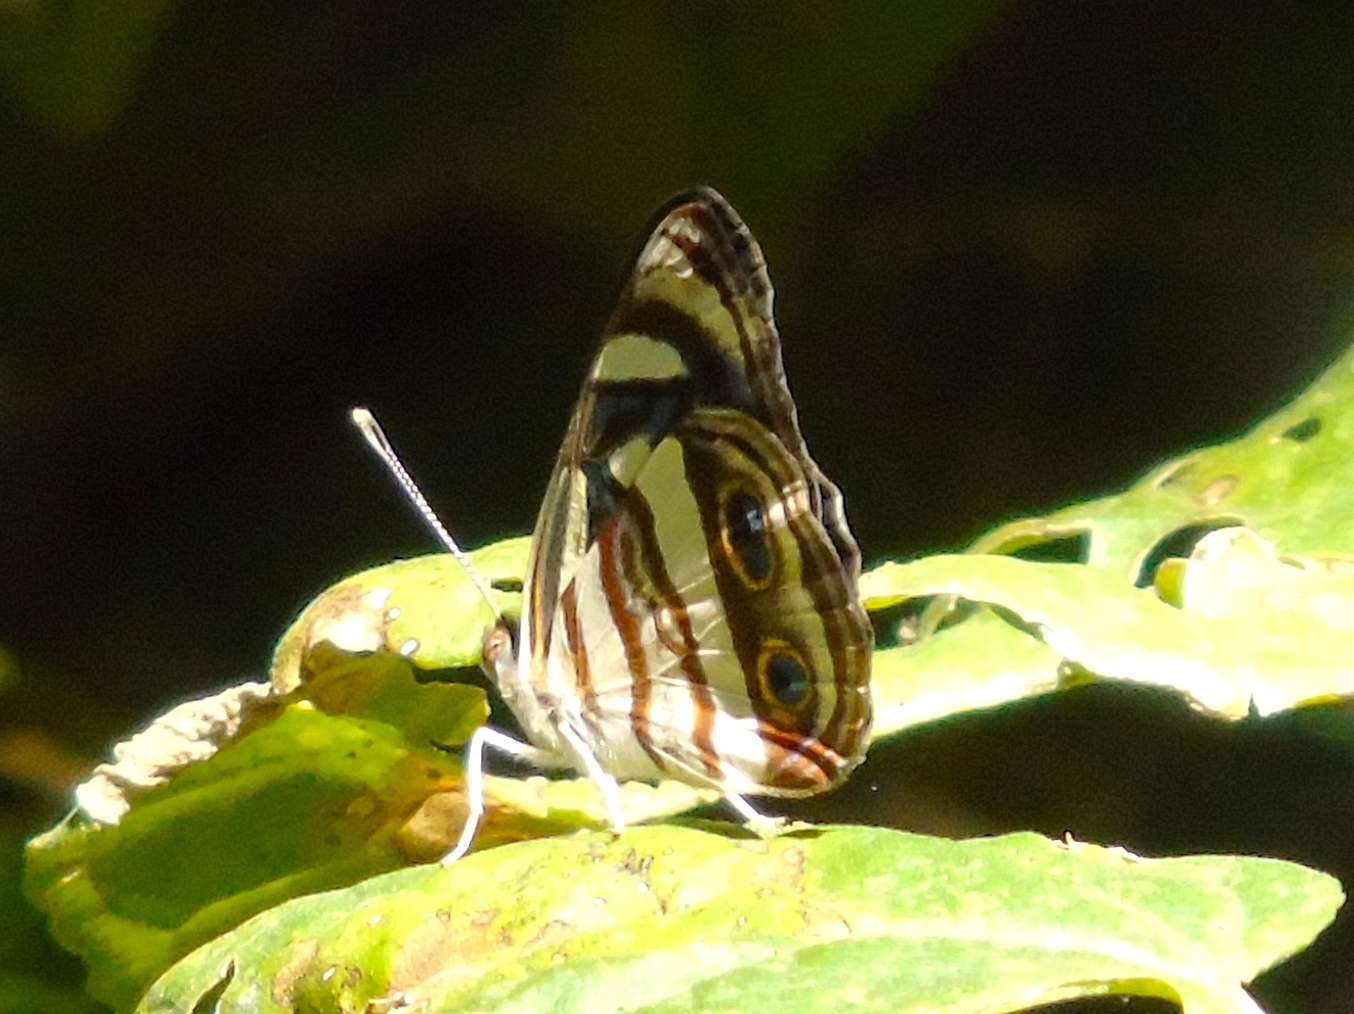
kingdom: Animalia
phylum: Arthropoda
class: Insecta
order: Lepidoptera
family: Nymphalidae
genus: Dynamine
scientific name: Dynamine mylitta
